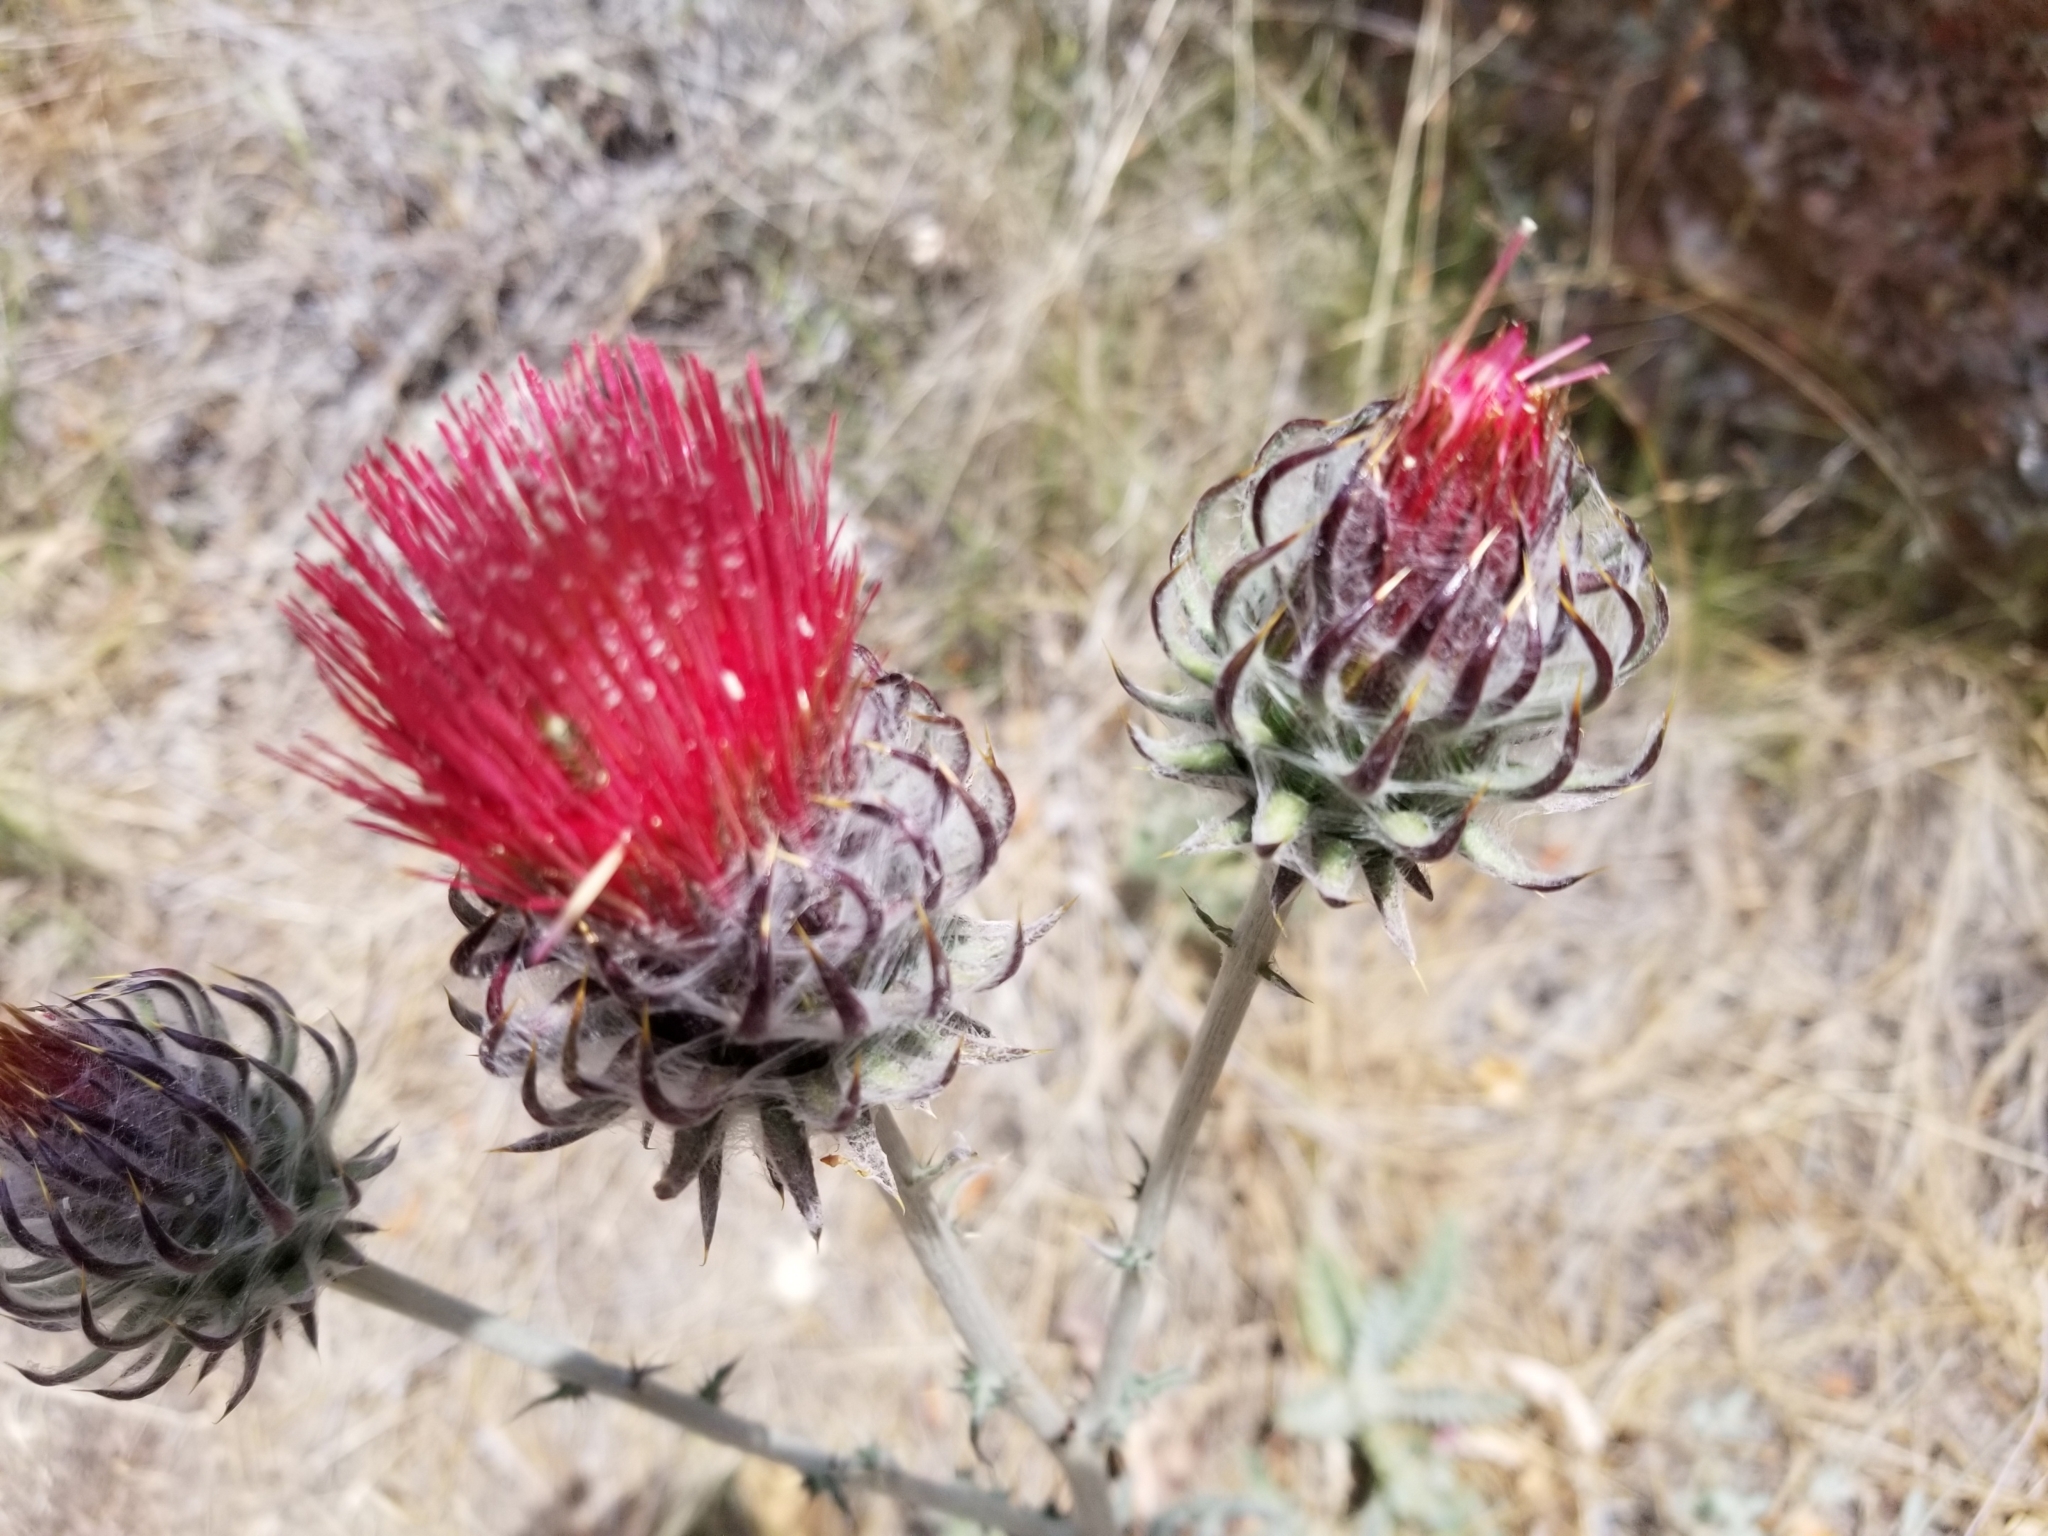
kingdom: Plantae
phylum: Tracheophyta
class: Magnoliopsida
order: Asterales
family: Asteraceae
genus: Cirsium
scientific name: Cirsium occidentale
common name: Western thistle
